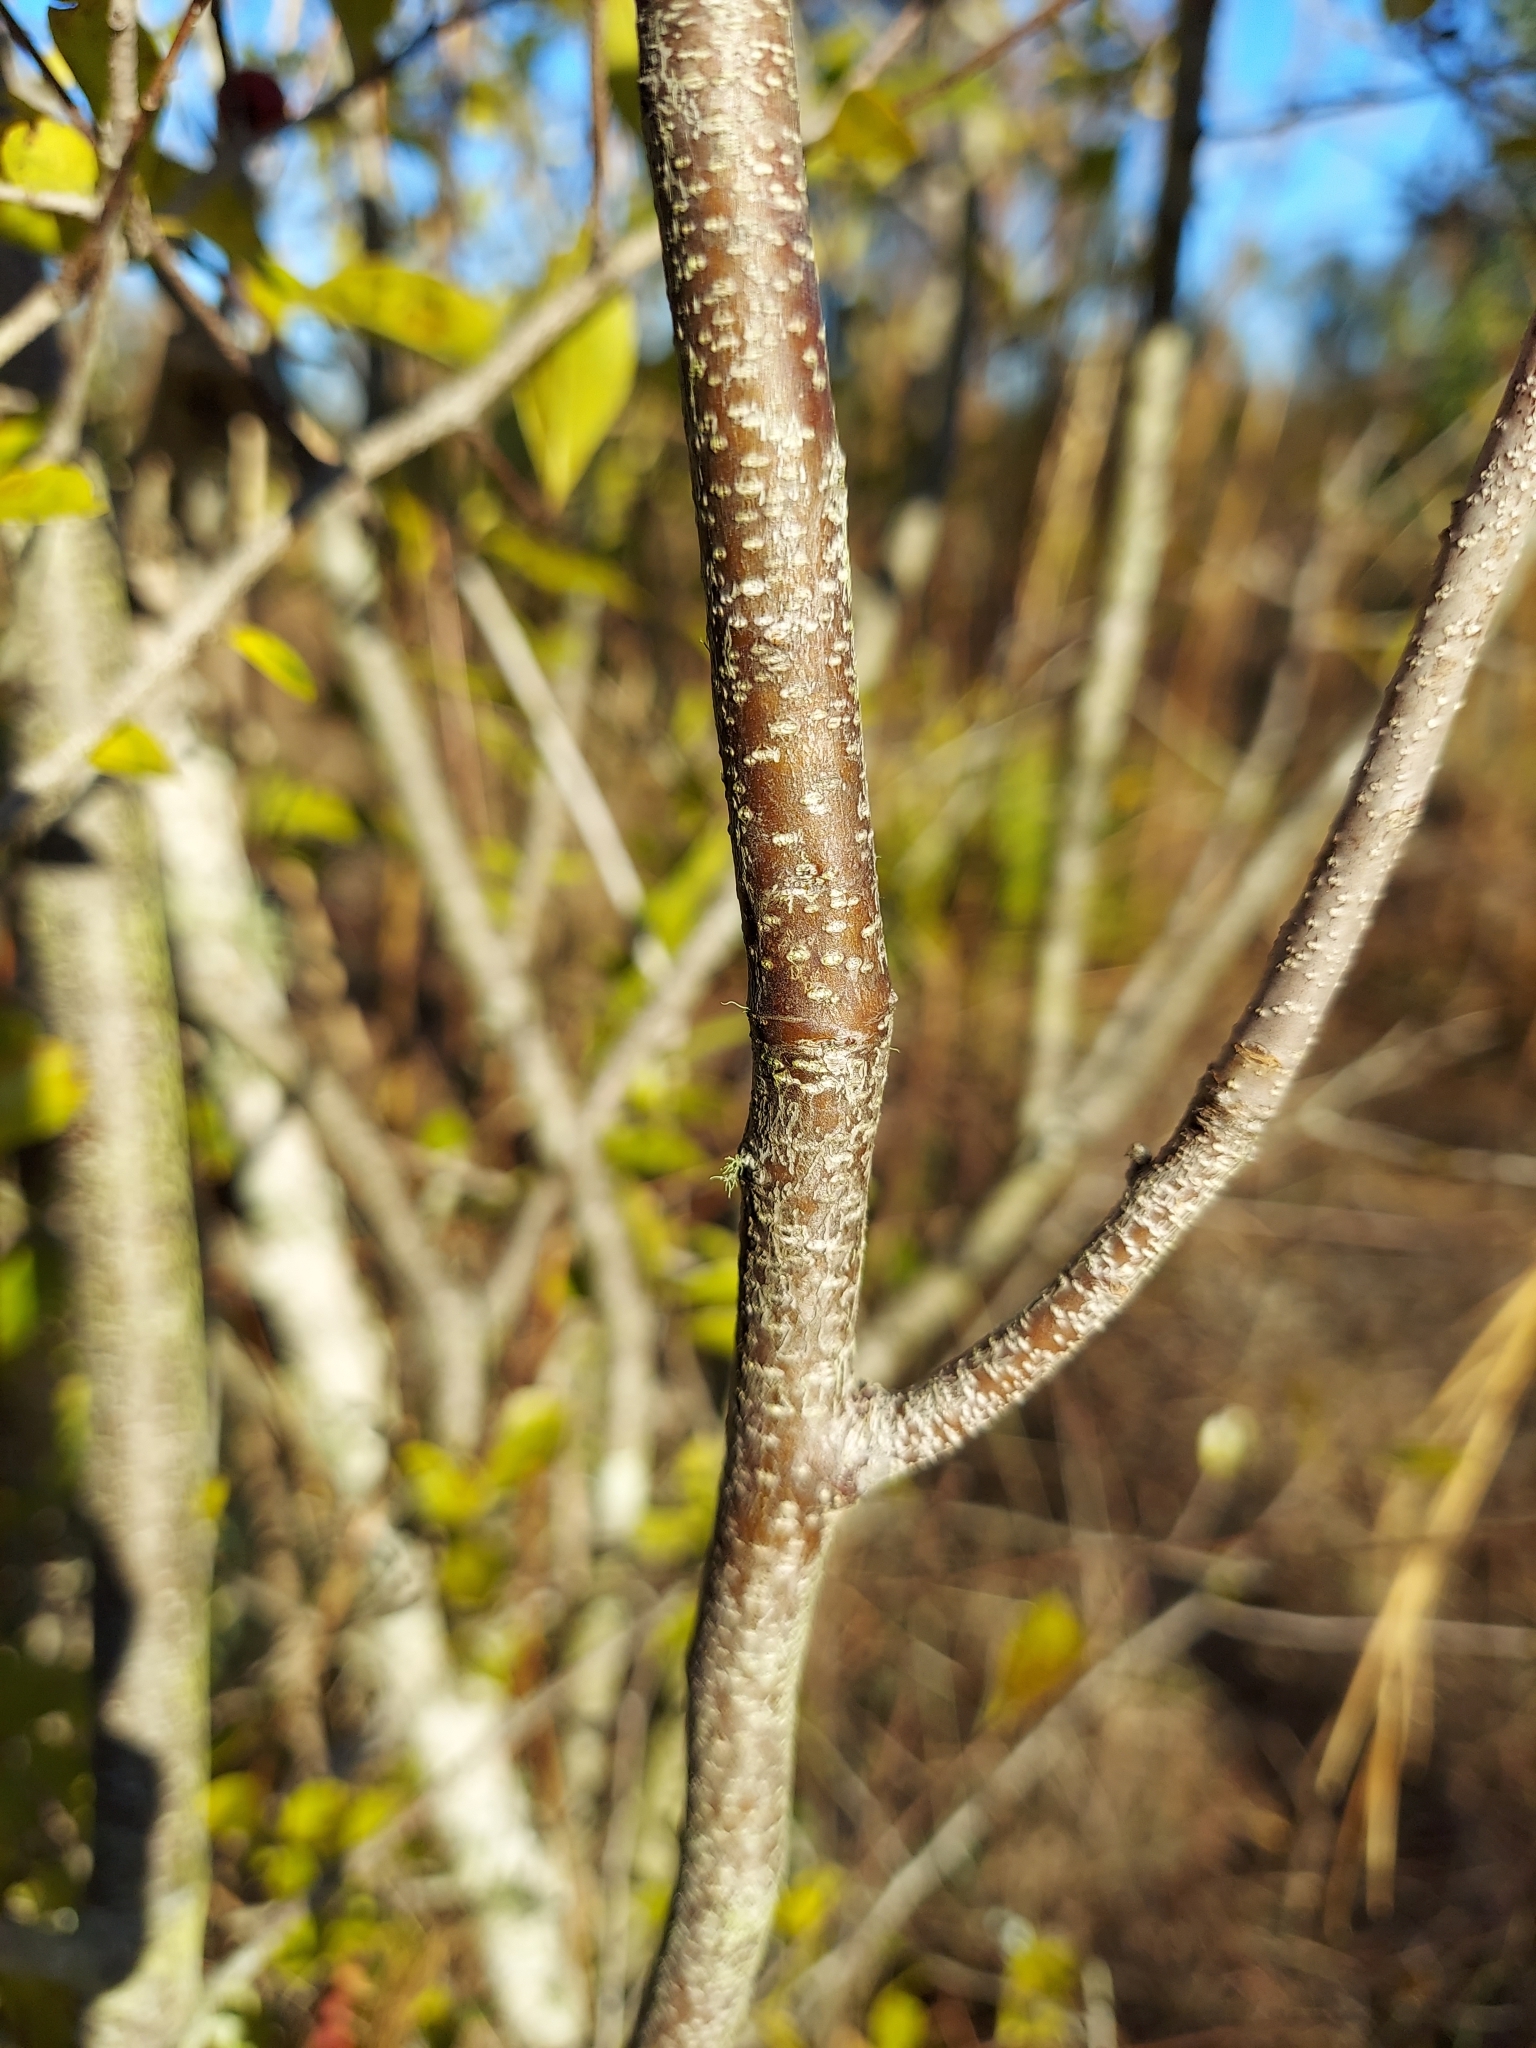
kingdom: Plantae
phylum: Tracheophyta
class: Magnoliopsida
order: Aquifoliales
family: Aquifoliaceae
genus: Ilex
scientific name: Ilex ambigua
